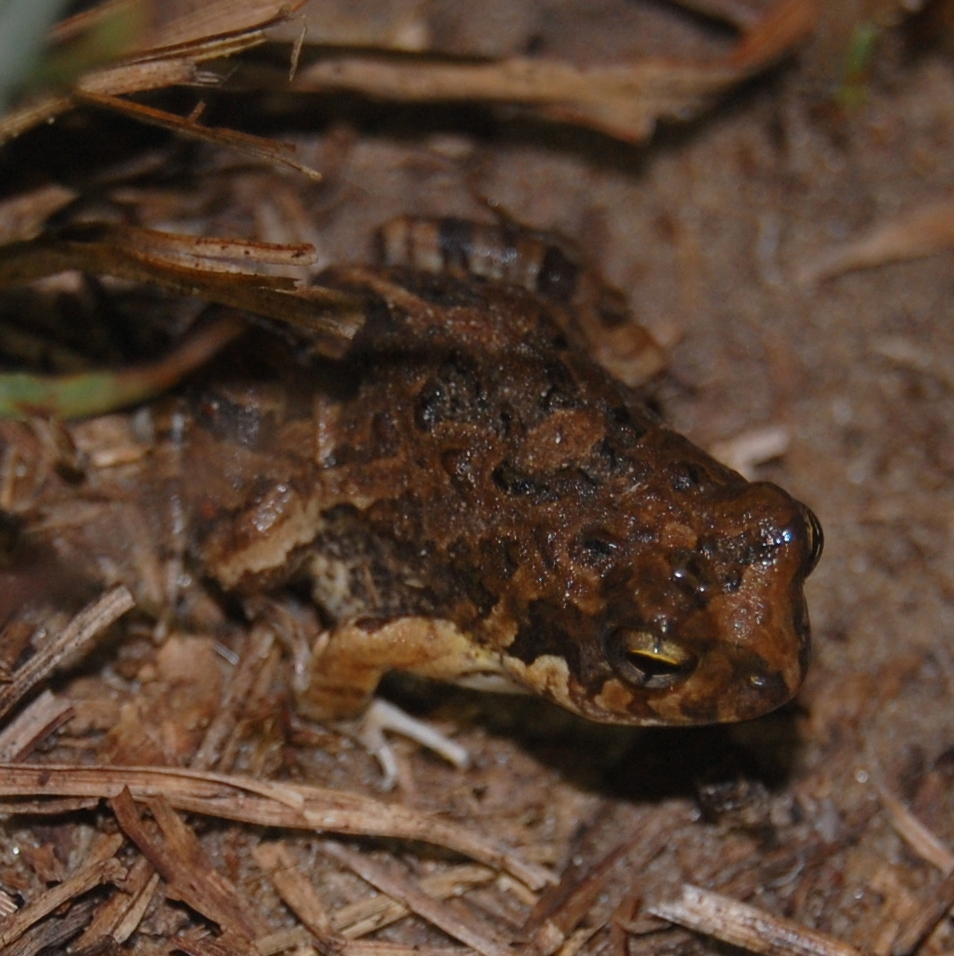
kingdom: Animalia
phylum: Chordata
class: Amphibia
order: Anura
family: Leptodactylidae
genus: Physalaemus
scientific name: Physalaemus biligonigerus
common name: Weeping frog
